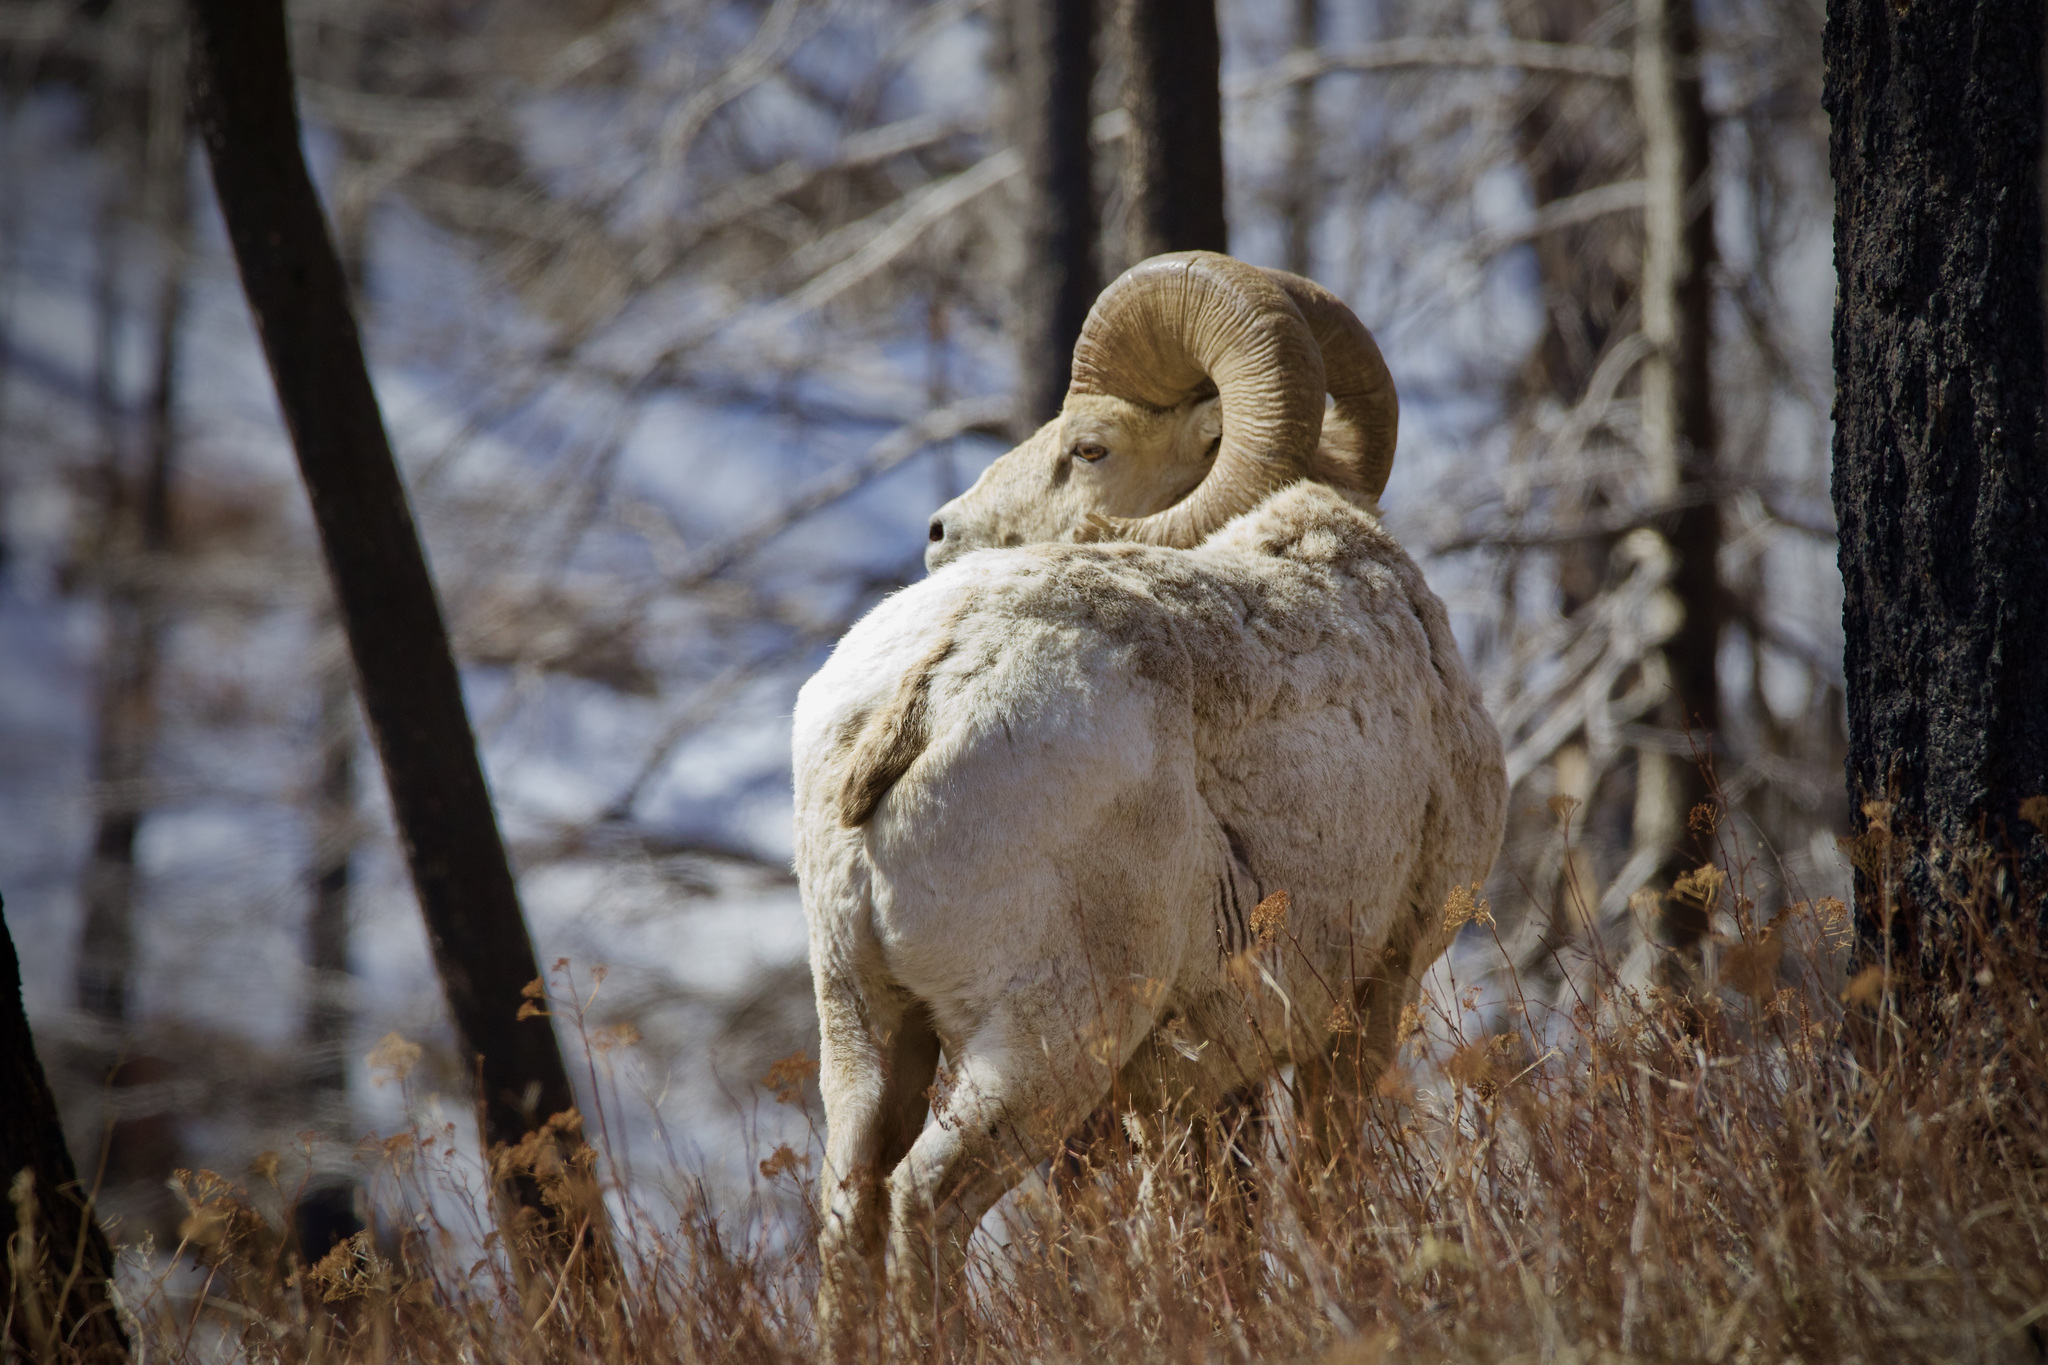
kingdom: Animalia
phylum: Chordata
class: Mammalia
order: Artiodactyla
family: Bovidae
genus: Ovis
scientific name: Ovis canadensis
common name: Bighorn sheep
